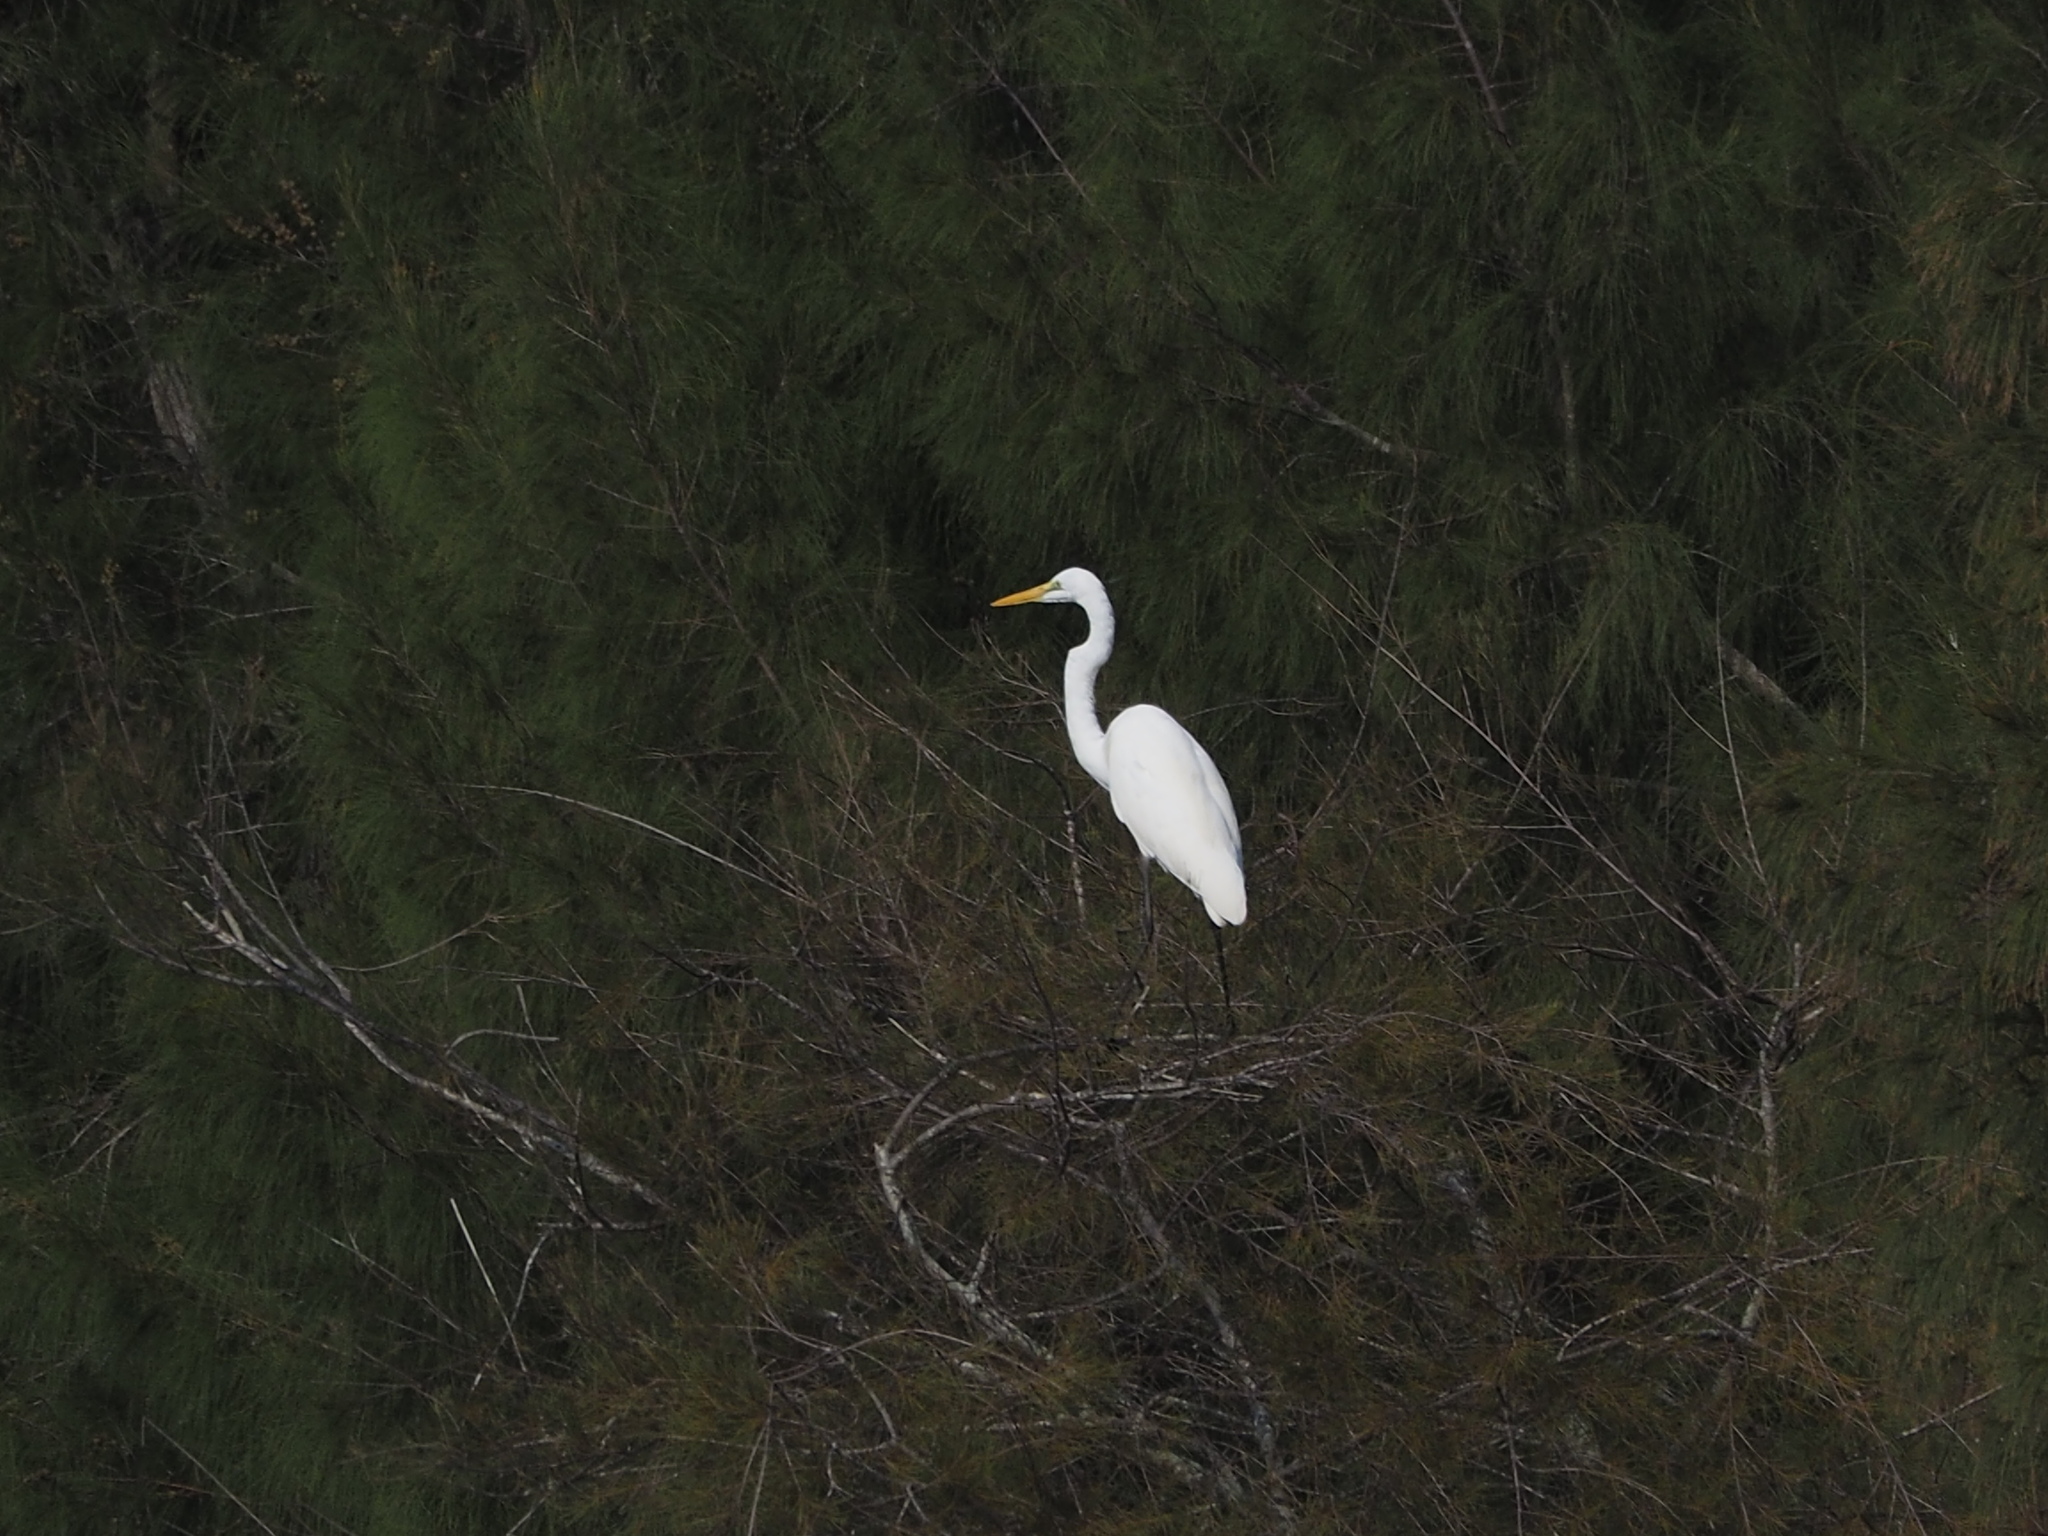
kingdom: Animalia
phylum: Chordata
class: Aves
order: Pelecaniformes
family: Ardeidae
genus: Ardea
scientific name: Ardea alba
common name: Great egret
